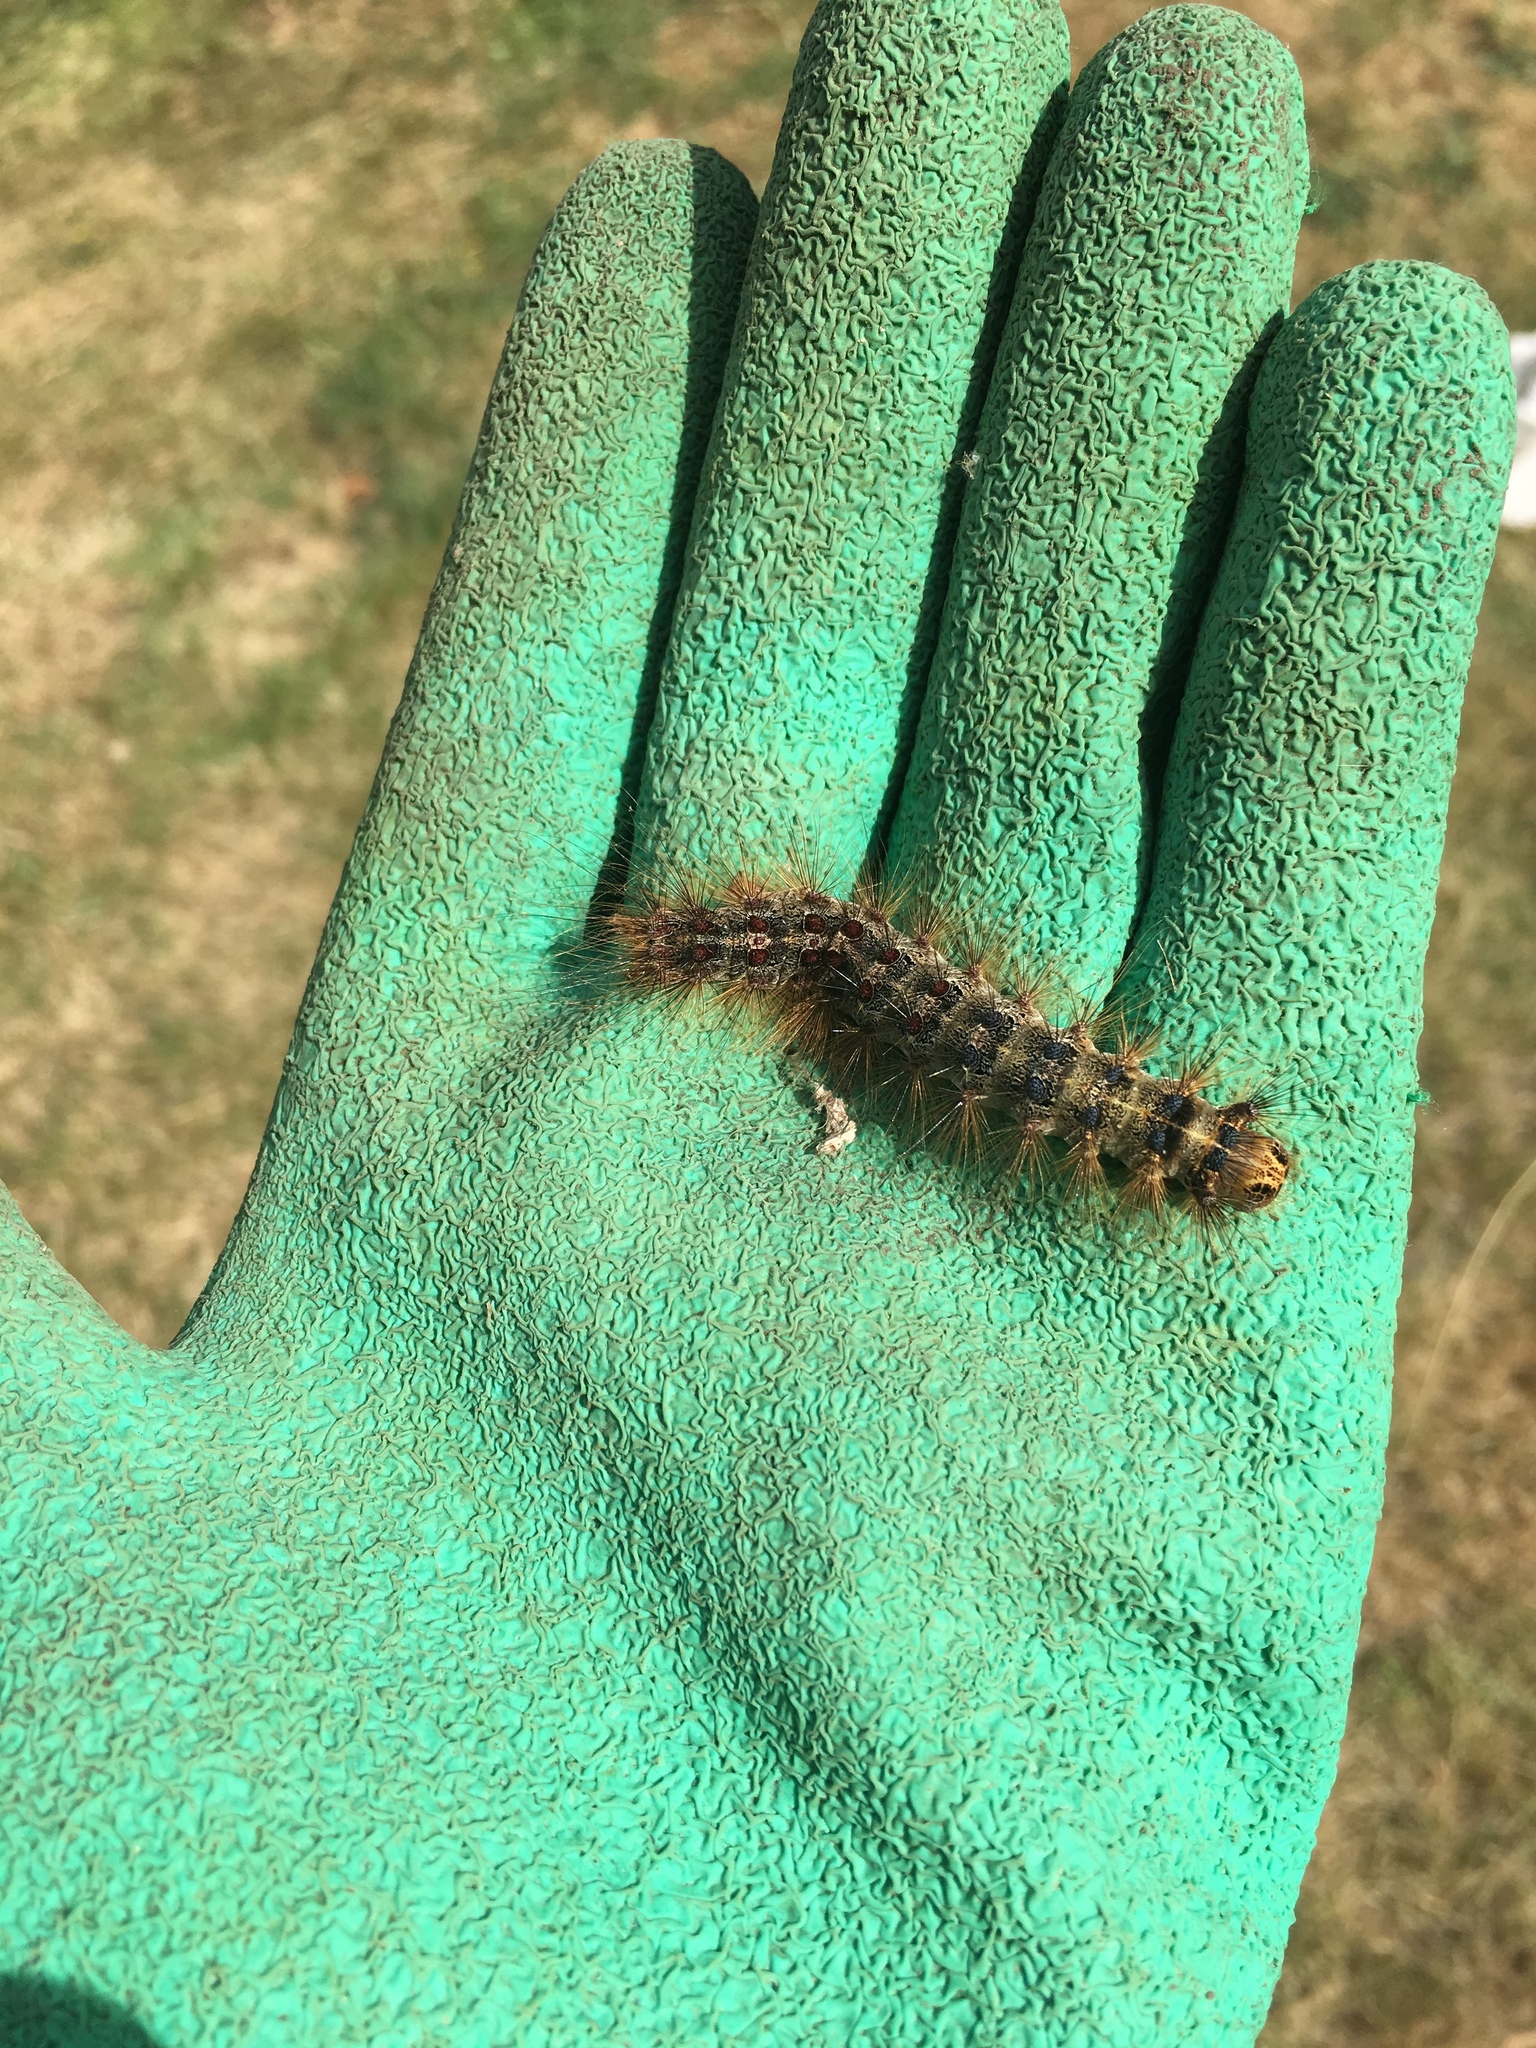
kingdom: Animalia
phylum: Arthropoda
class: Insecta
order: Lepidoptera
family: Erebidae
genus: Lymantria
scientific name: Lymantria dispar
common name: Gypsy moth
